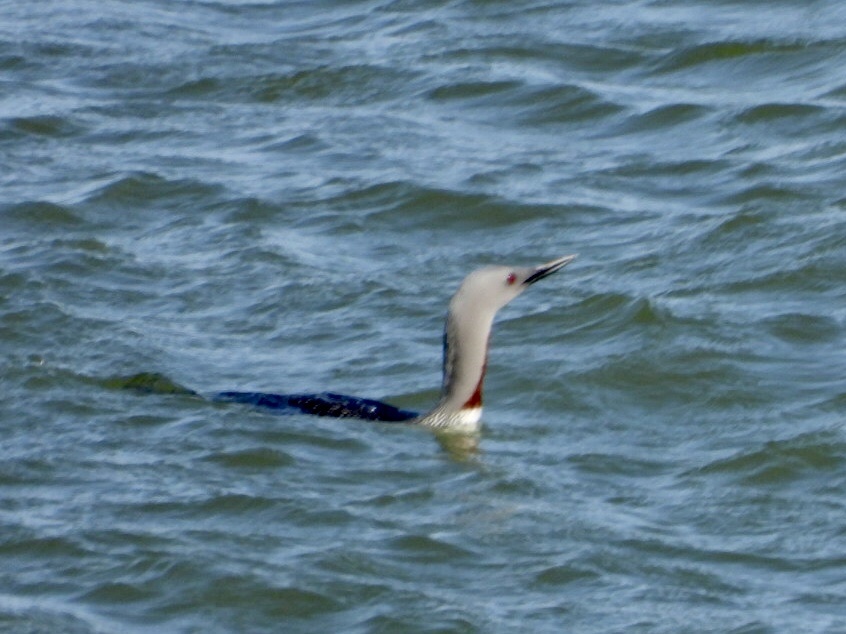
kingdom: Animalia
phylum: Chordata
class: Aves
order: Gaviiformes
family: Gaviidae
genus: Gavia
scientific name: Gavia stellata
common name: Red-throated loon
